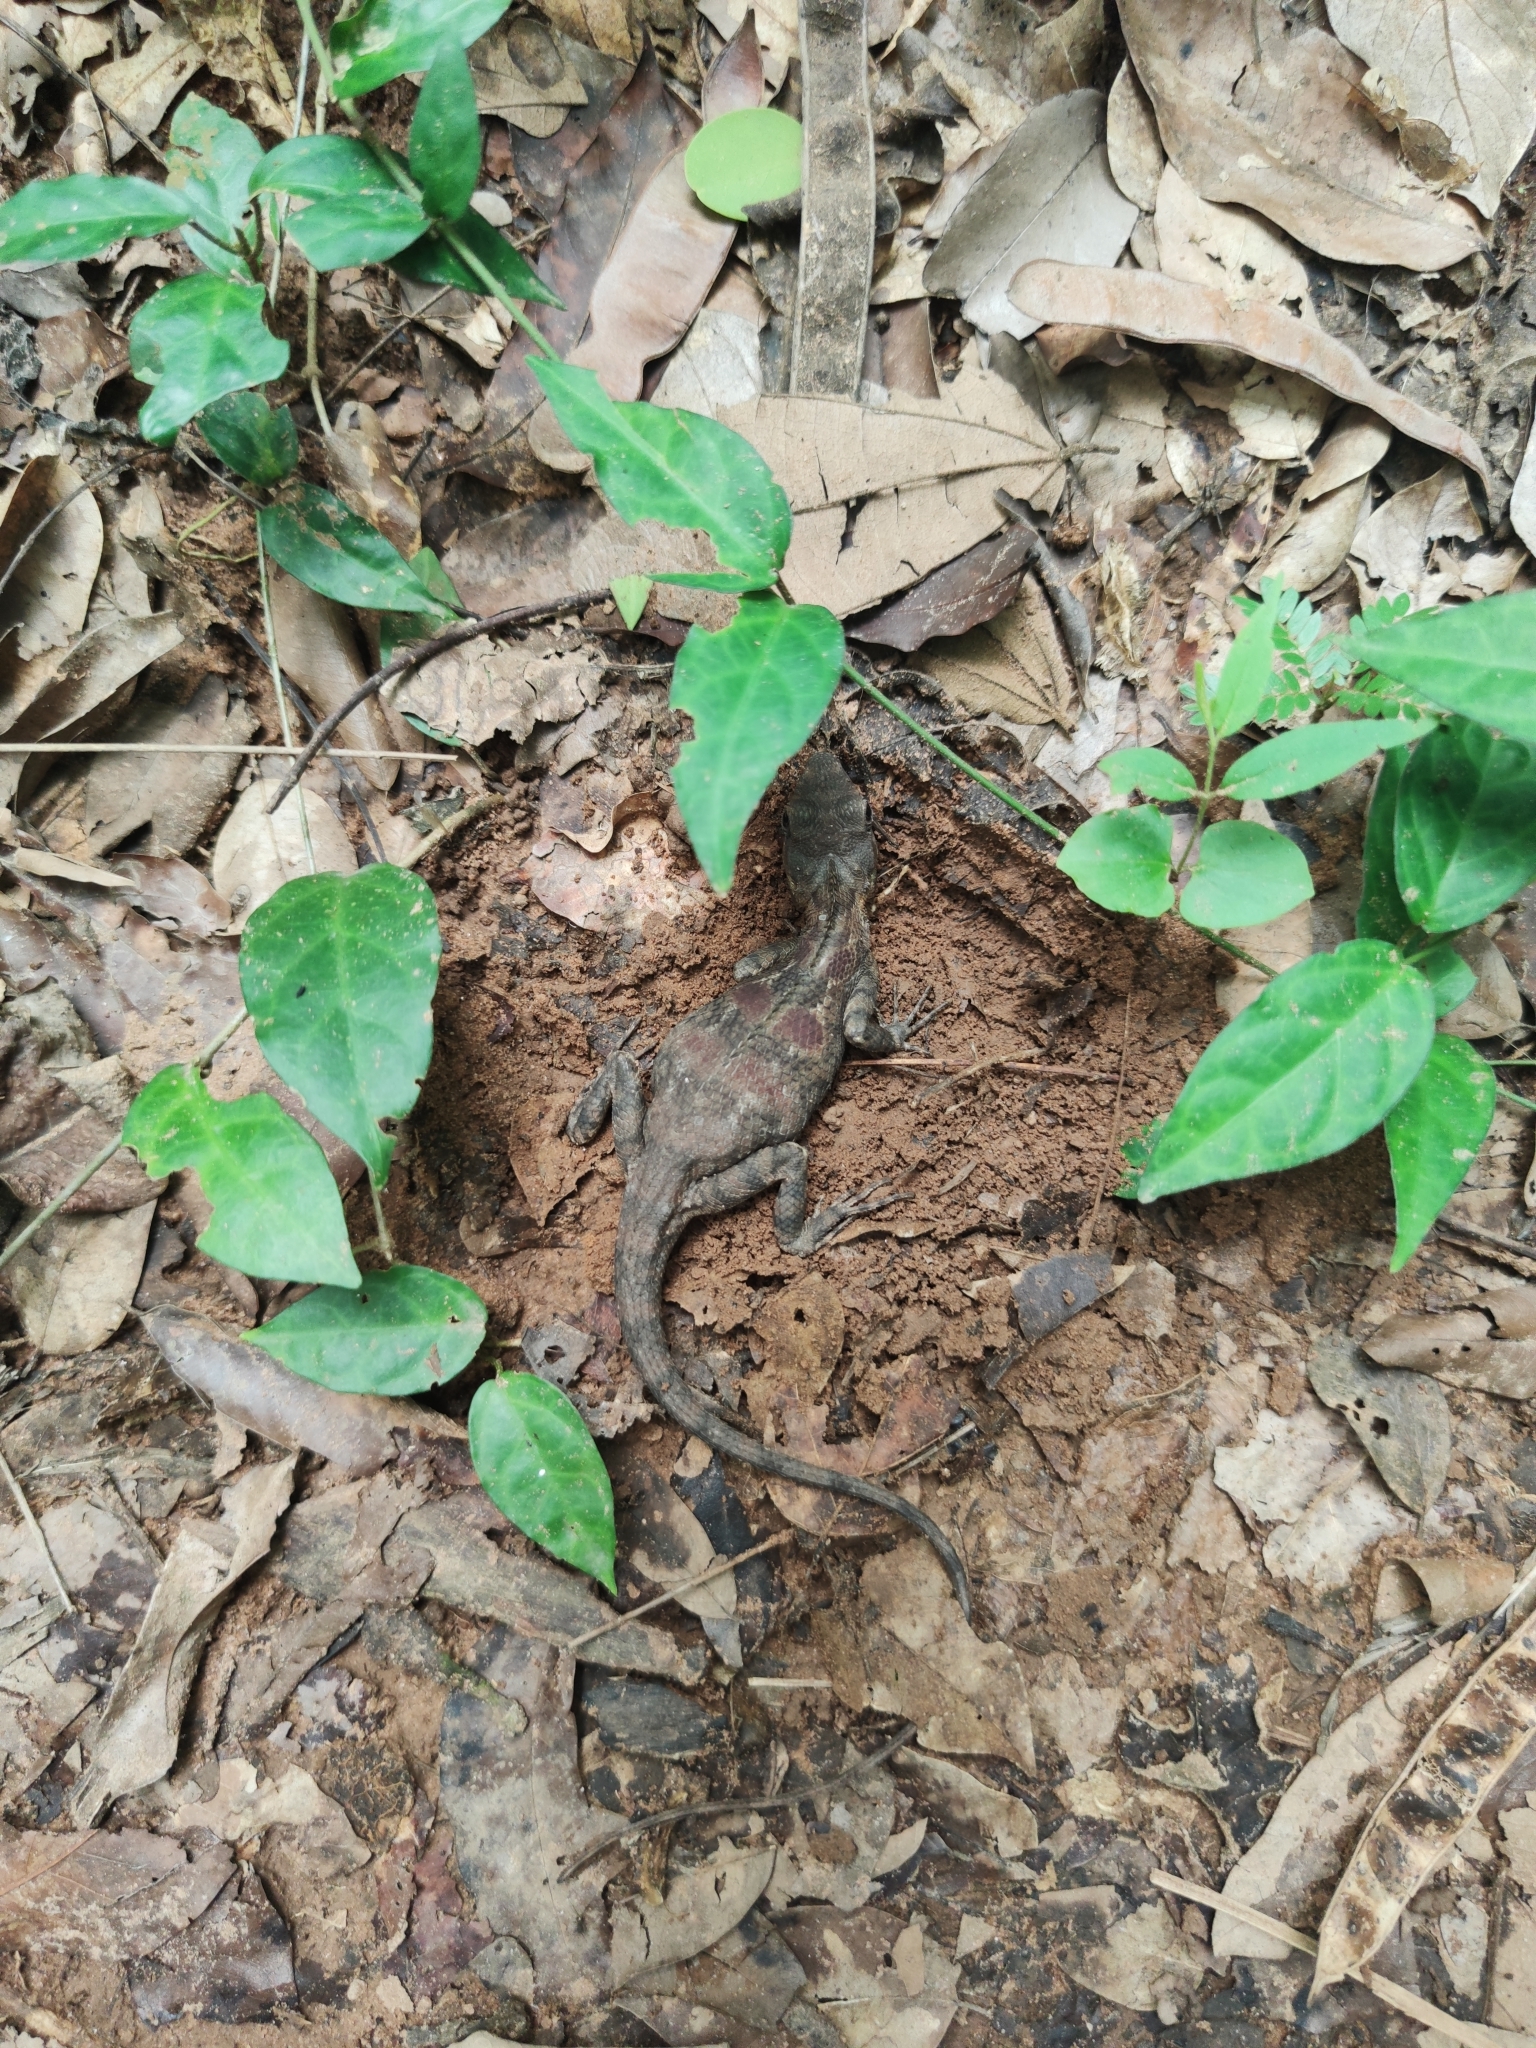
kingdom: Animalia
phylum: Chordata
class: Squamata
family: Agamidae
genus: Calotes
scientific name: Calotes goetzi
